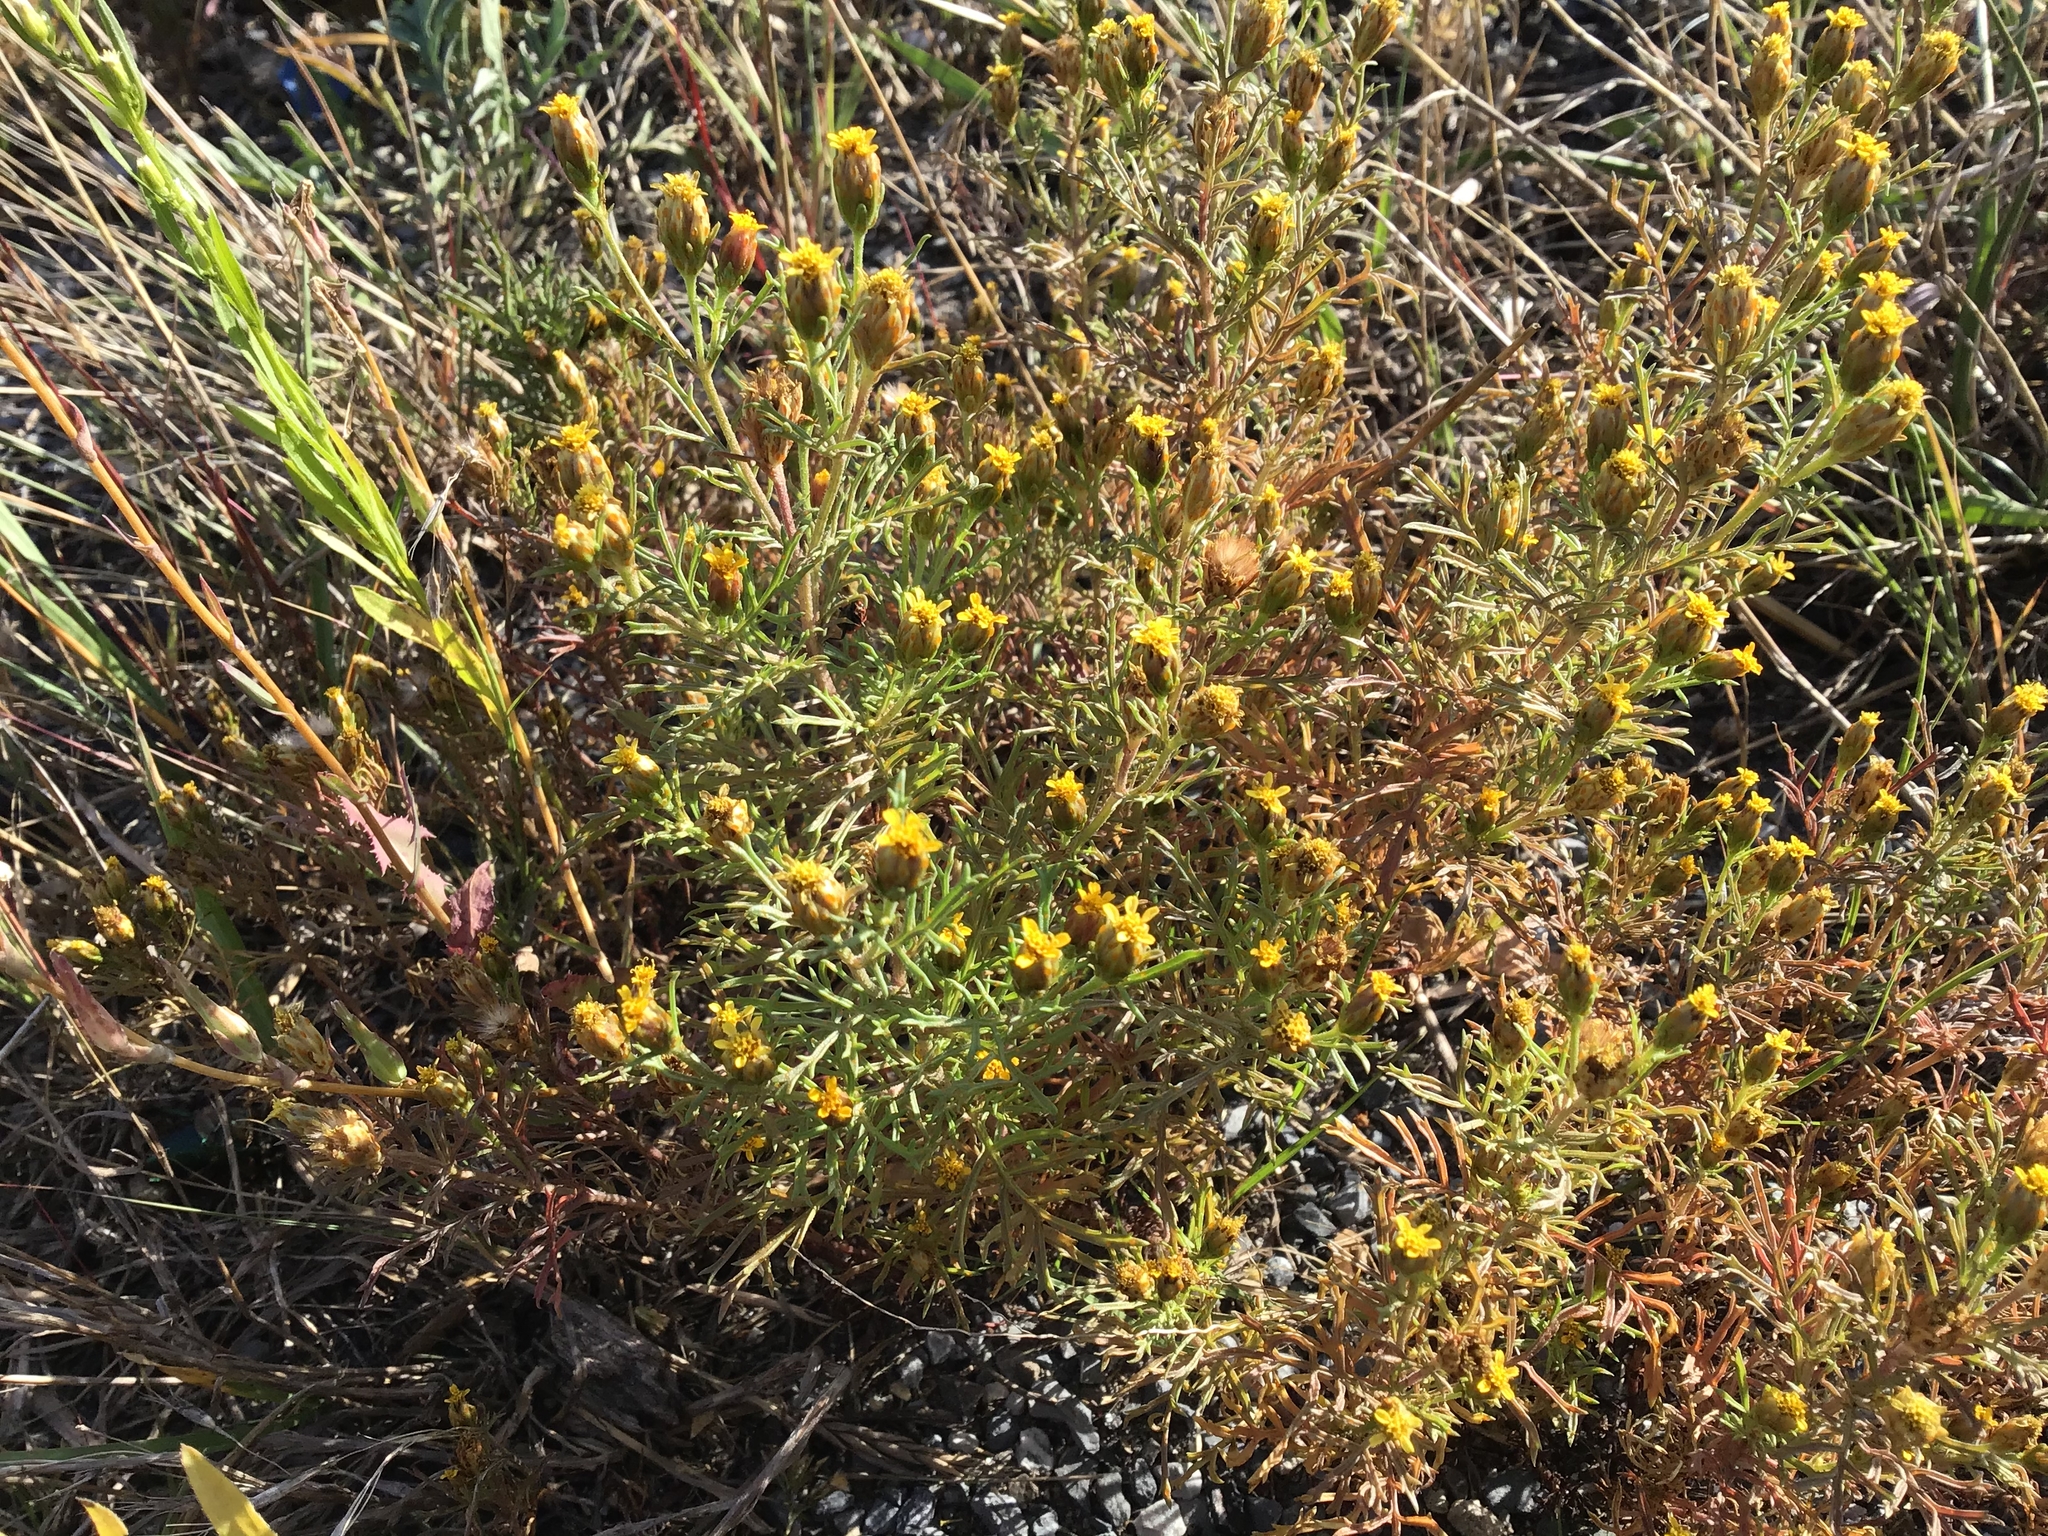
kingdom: Plantae
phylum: Tracheophyta
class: Magnoliopsida
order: Asterales
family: Asteraceae
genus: Dyssodia
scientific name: Dyssodia papposa
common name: Dogweed
